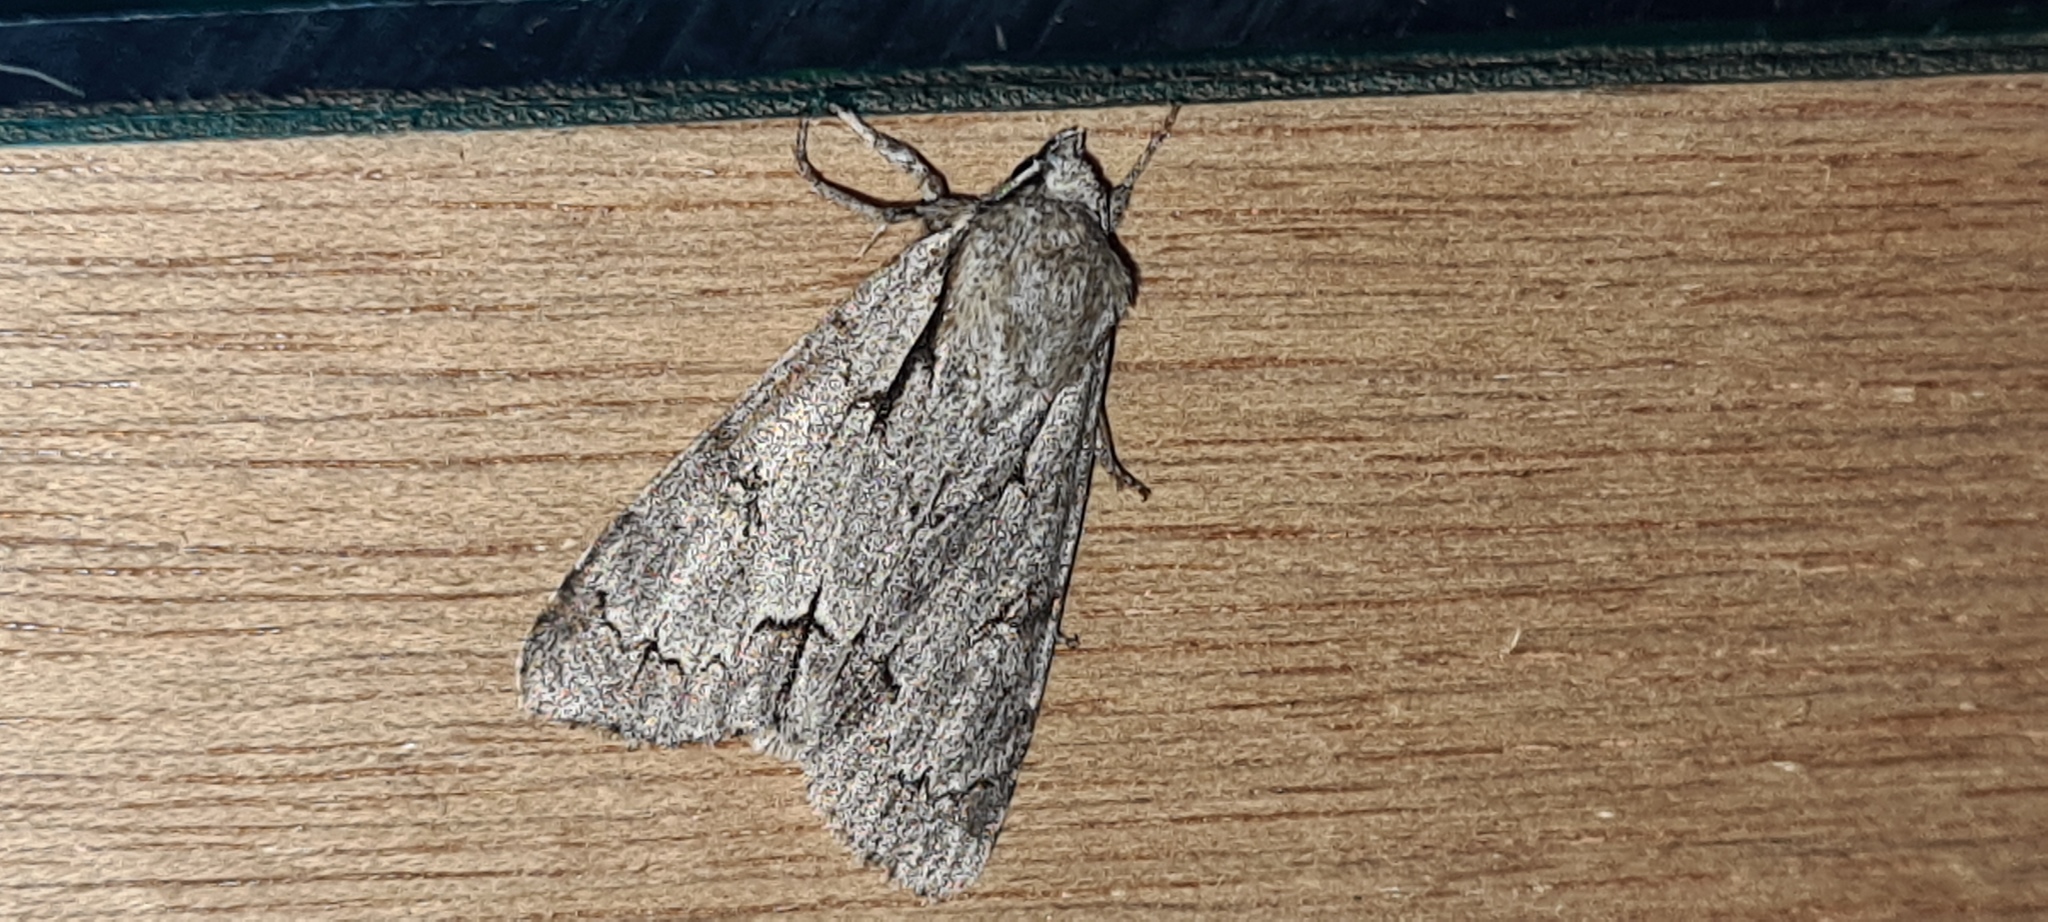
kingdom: Animalia
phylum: Arthropoda
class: Insecta
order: Lepidoptera
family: Noctuidae
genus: Acronicta
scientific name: Acronicta
